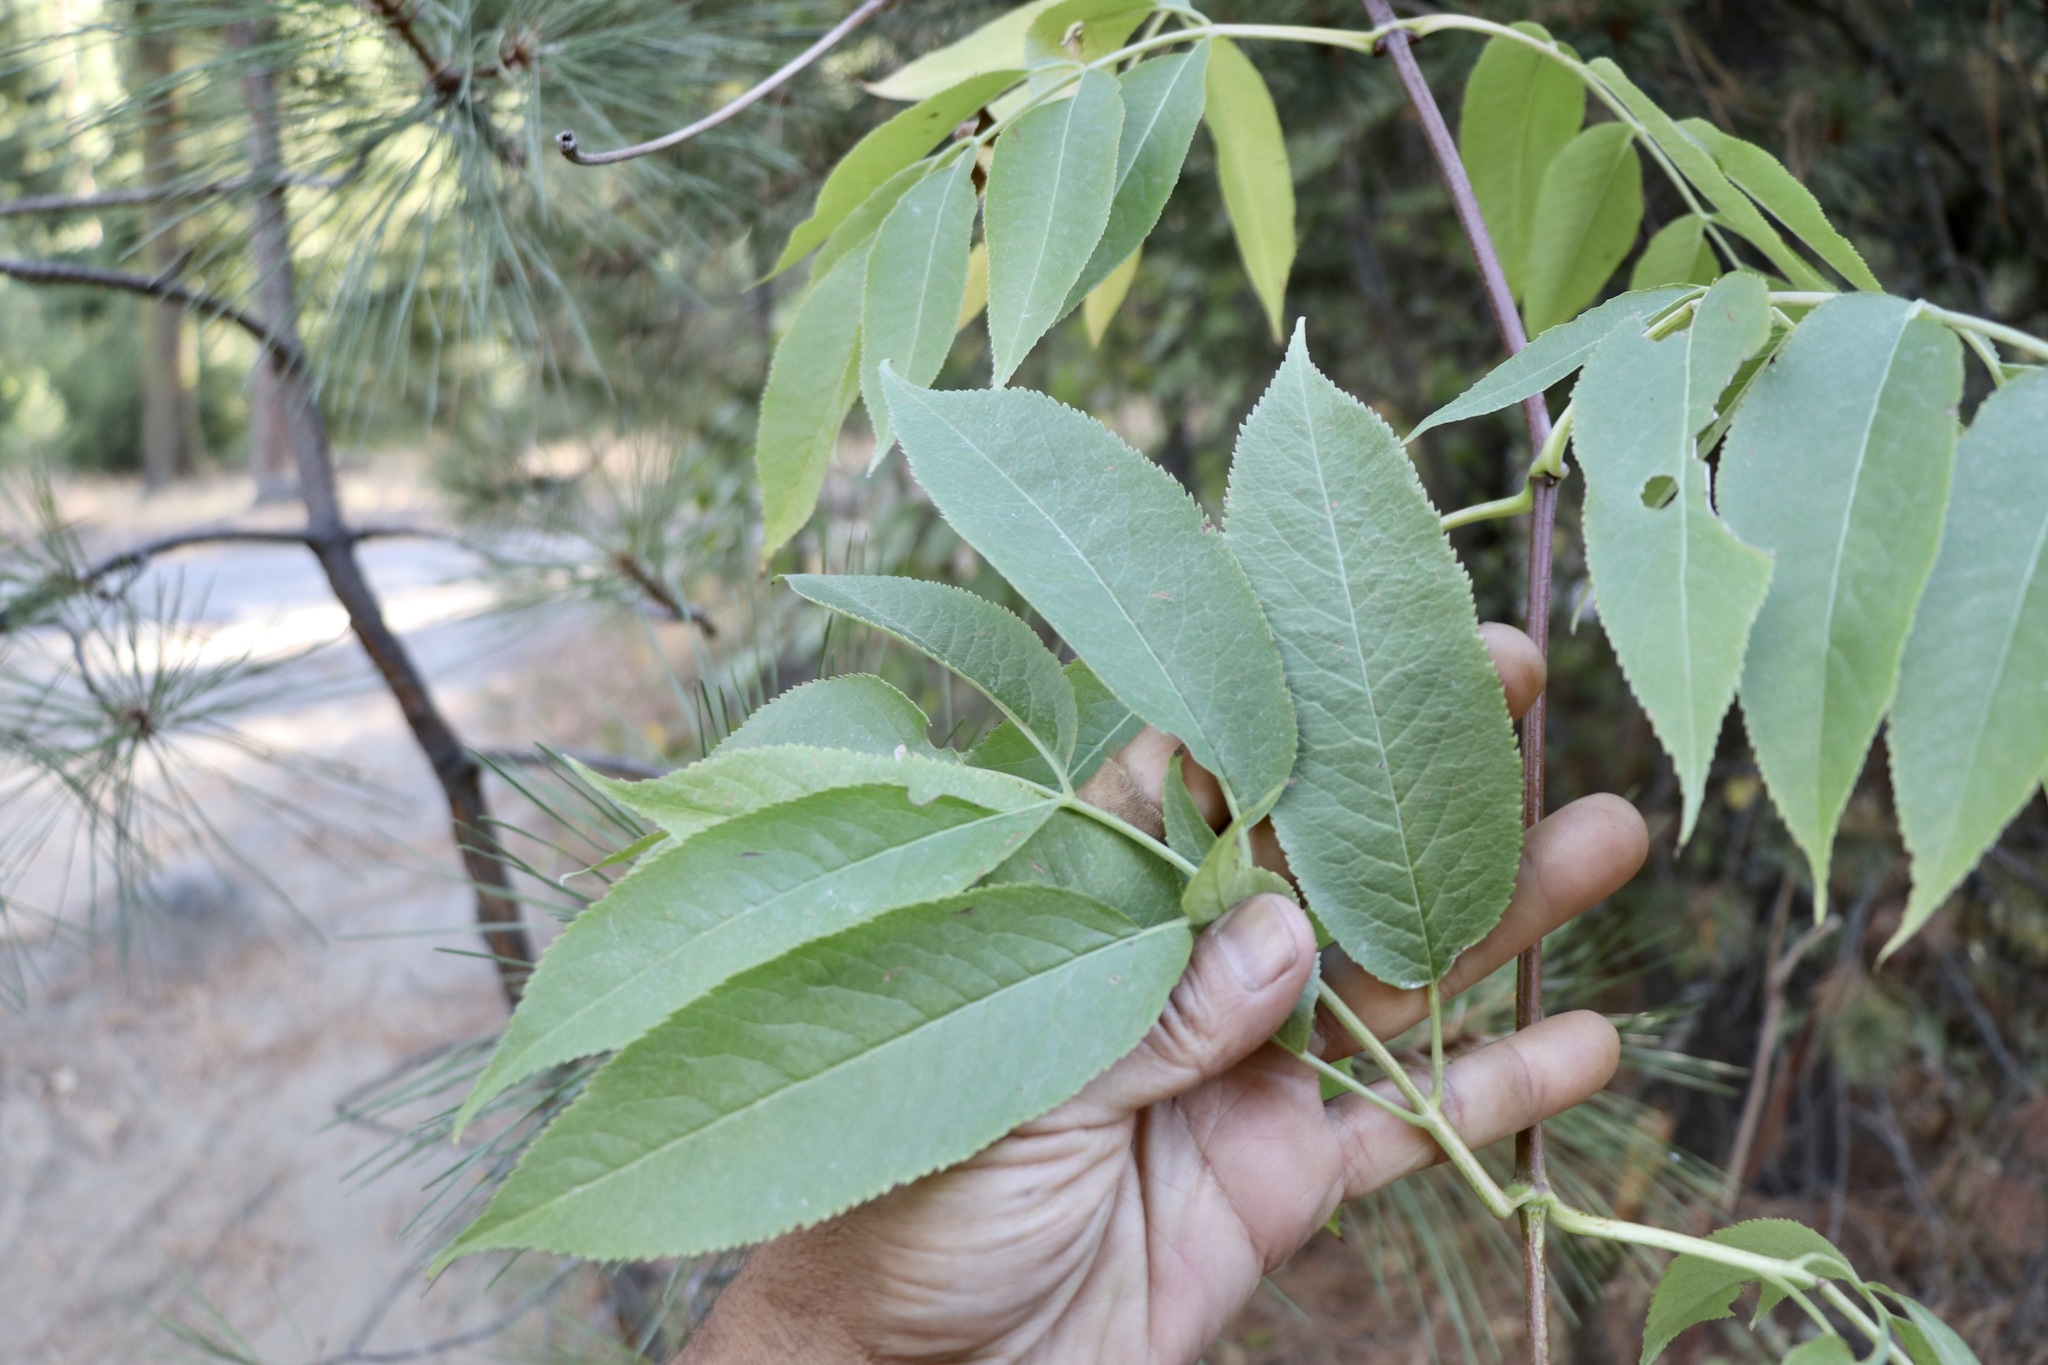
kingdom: Plantae
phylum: Tracheophyta
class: Magnoliopsida
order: Dipsacales
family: Viburnaceae
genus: Sambucus
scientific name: Sambucus cerulea
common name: Blue elder
